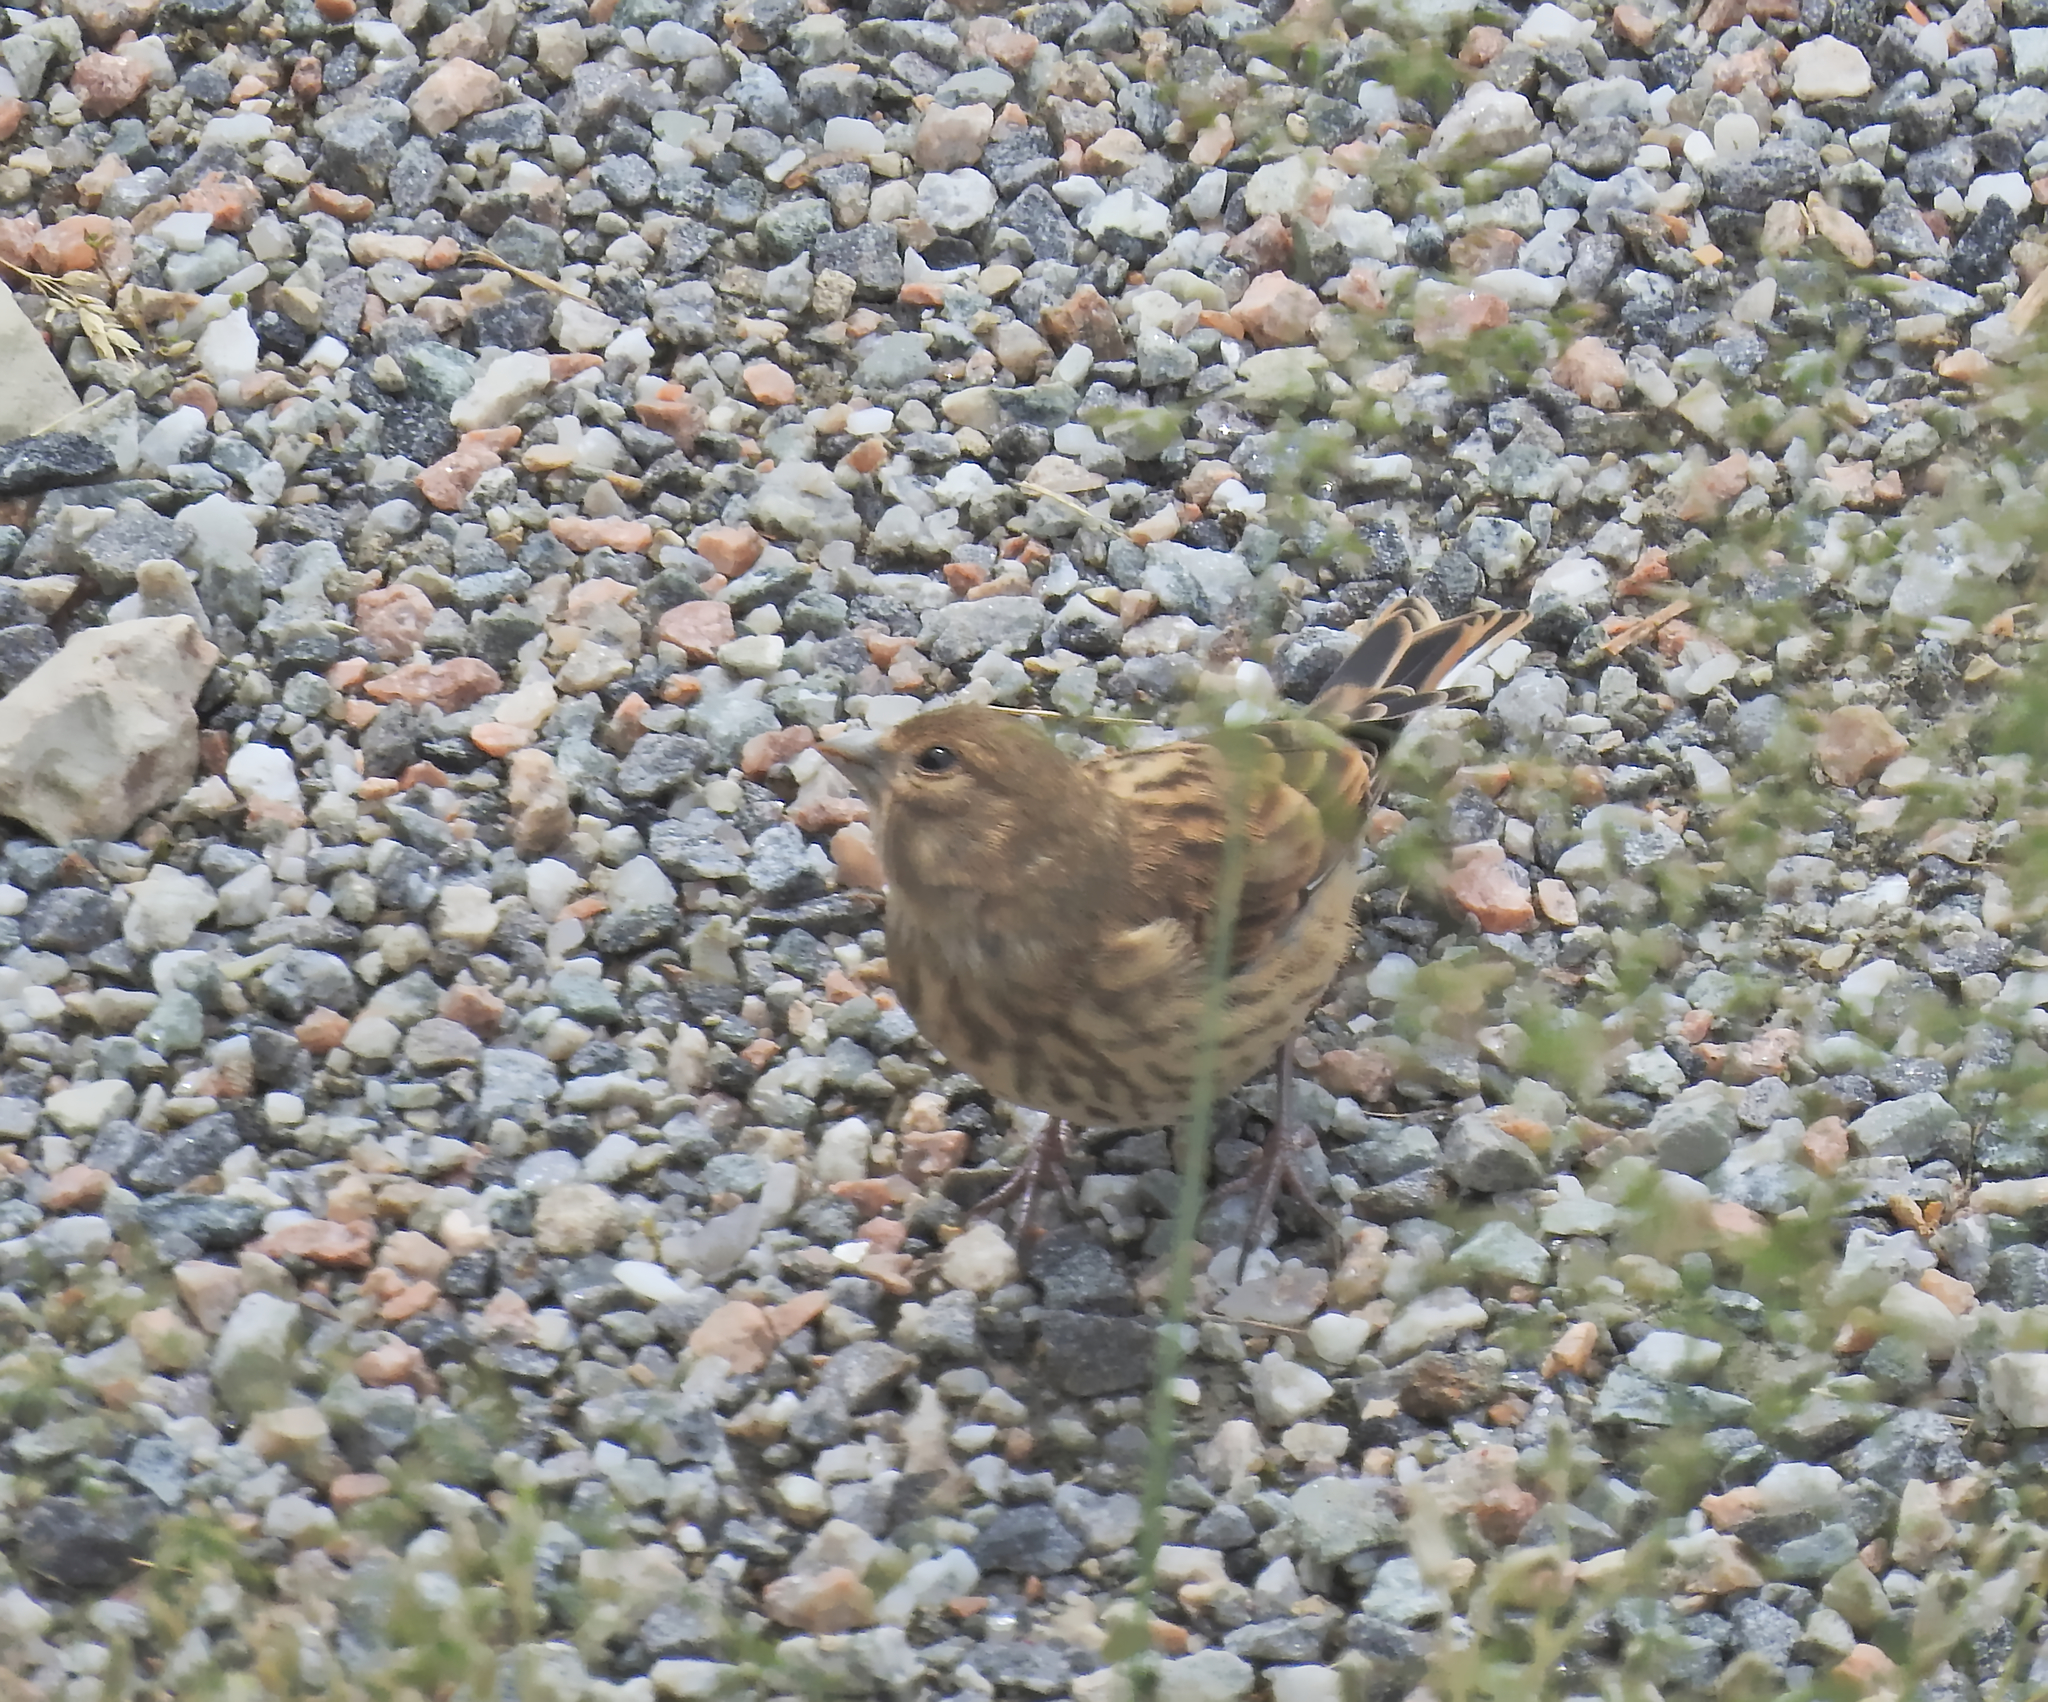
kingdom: Animalia
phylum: Chordata
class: Aves
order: Passeriformes
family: Fringillidae
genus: Linaria
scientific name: Linaria cannabina
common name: Common linnet
